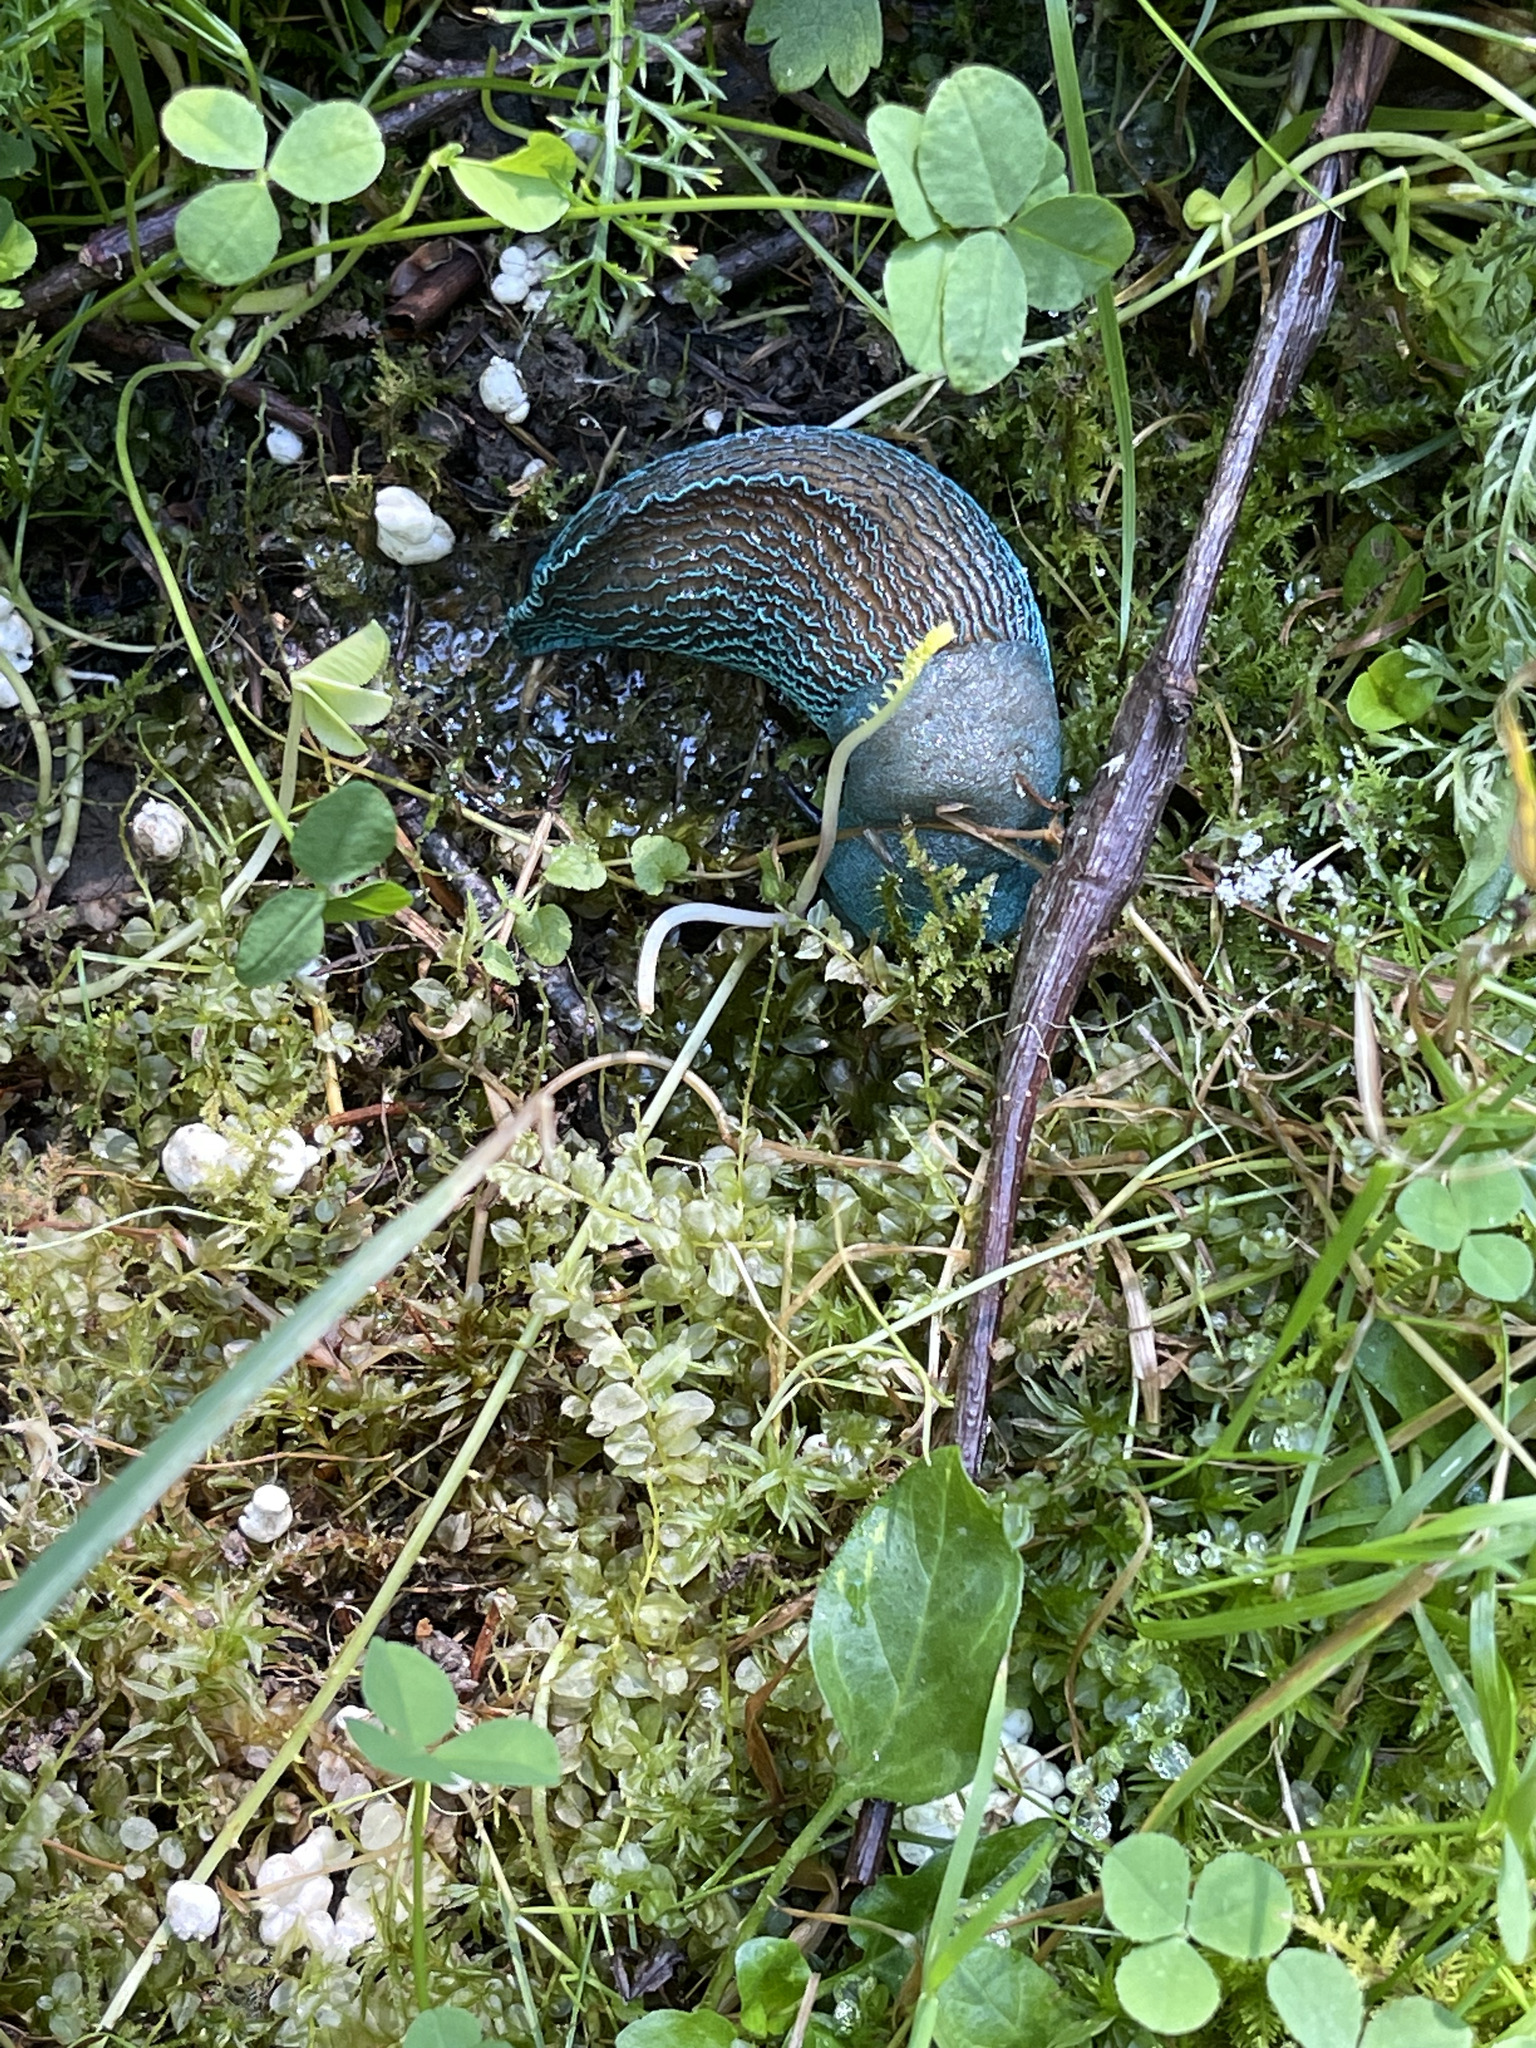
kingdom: Animalia
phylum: Mollusca
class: Gastropoda
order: Stylommatophora
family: Limacidae
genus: Bielzia
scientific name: Bielzia coerulans
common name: Carpathian blue slug
